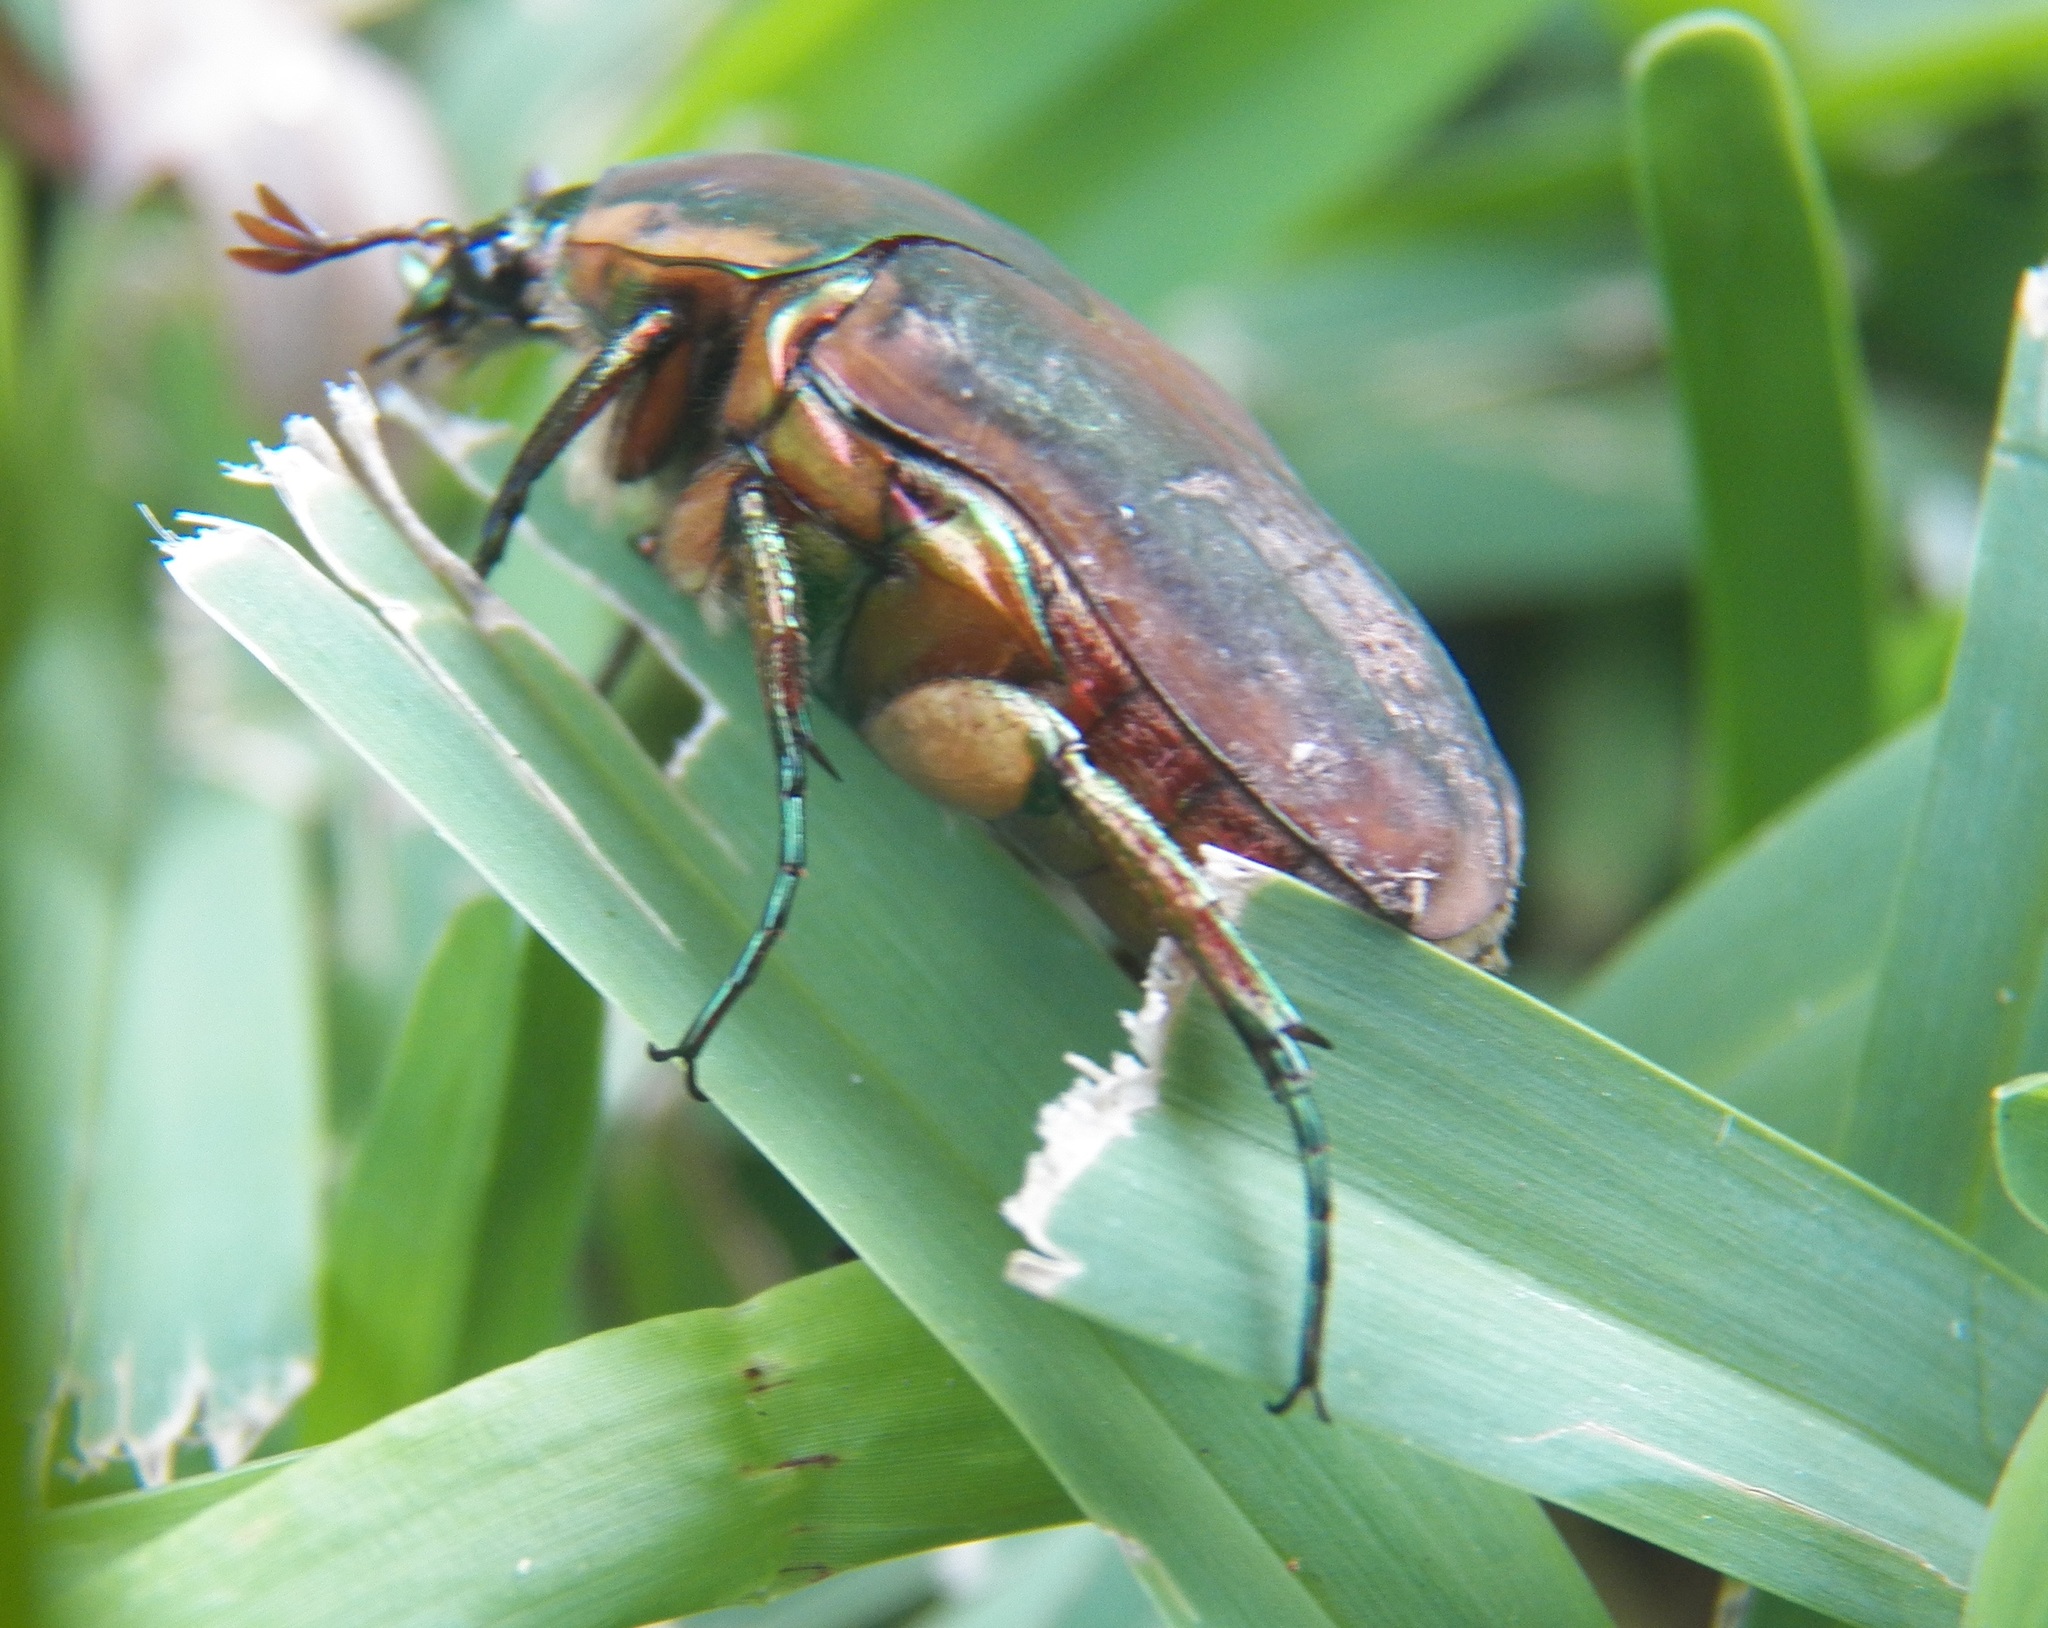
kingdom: Animalia
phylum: Arthropoda
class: Insecta
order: Coleoptera
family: Scarabaeidae
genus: Cotinis
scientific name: Cotinis nitida
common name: Common green june beetle
